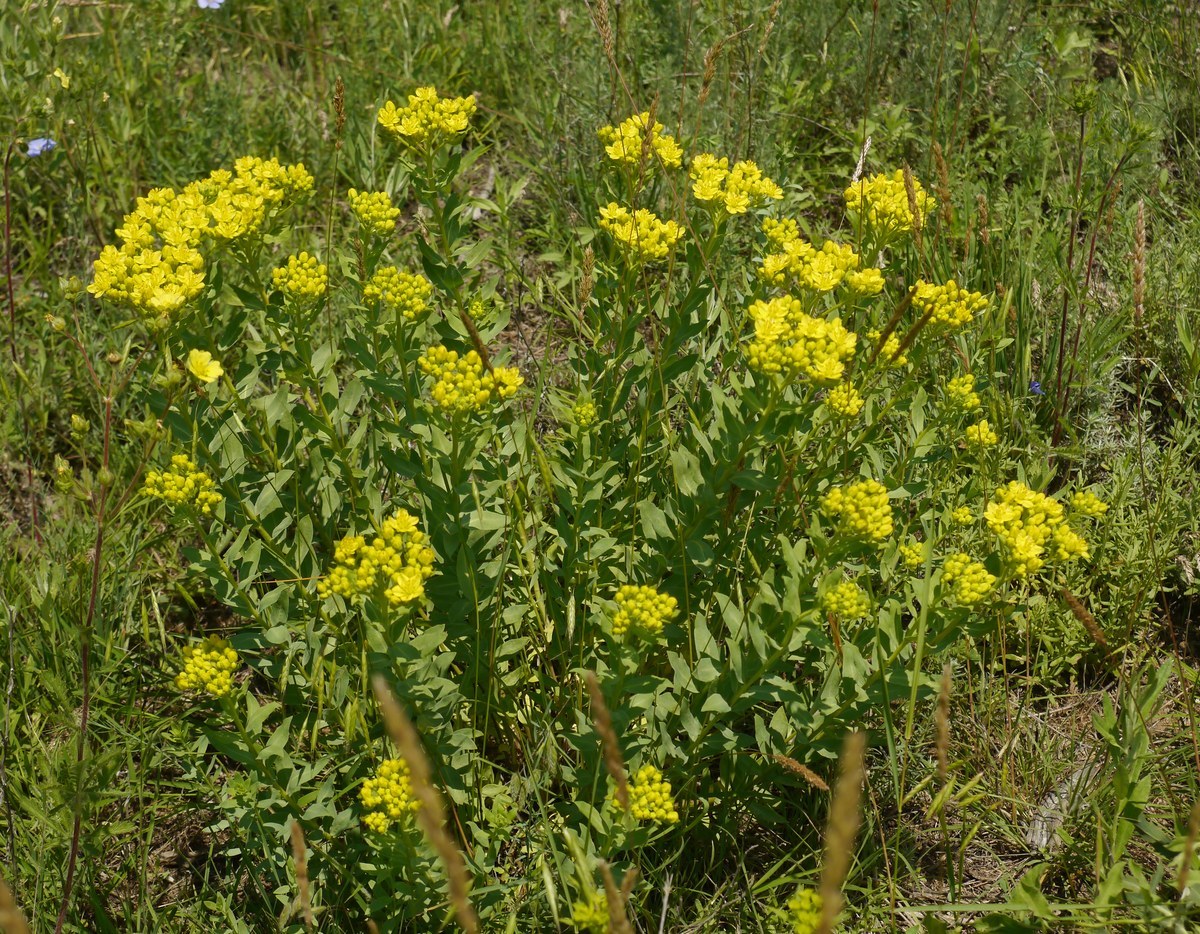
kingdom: Plantae
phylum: Tracheophyta
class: Magnoliopsida
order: Sapindales
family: Rutaceae
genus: Haplophyllum
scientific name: Haplophyllum suaveolens
